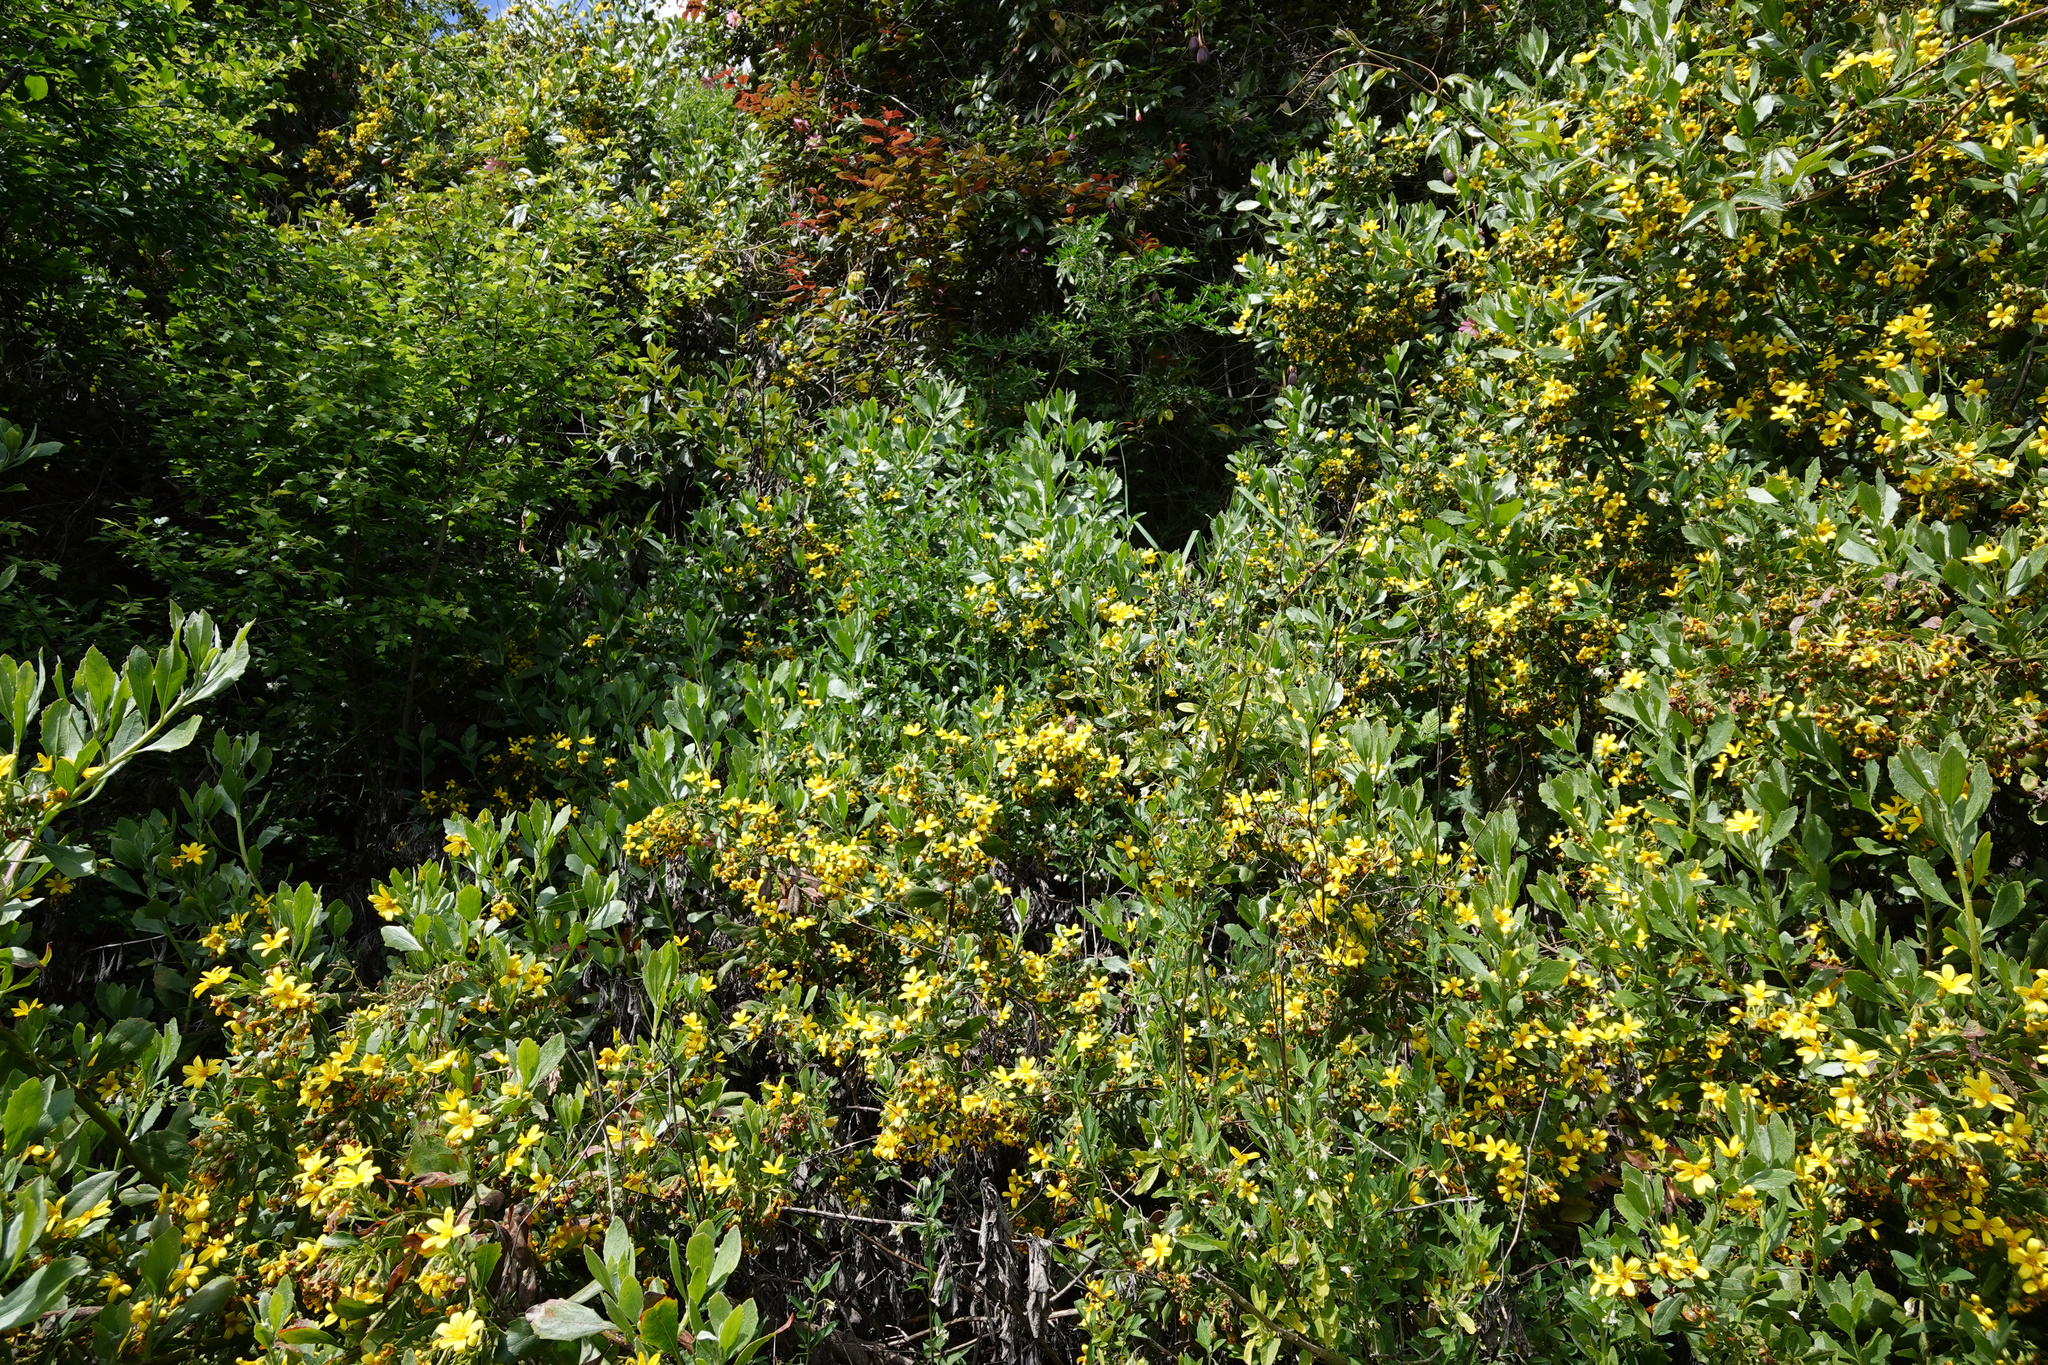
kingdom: Plantae
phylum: Tracheophyta
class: Magnoliopsida
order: Asterales
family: Asteraceae
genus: Osteospermum
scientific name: Osteospermum moniliferum
